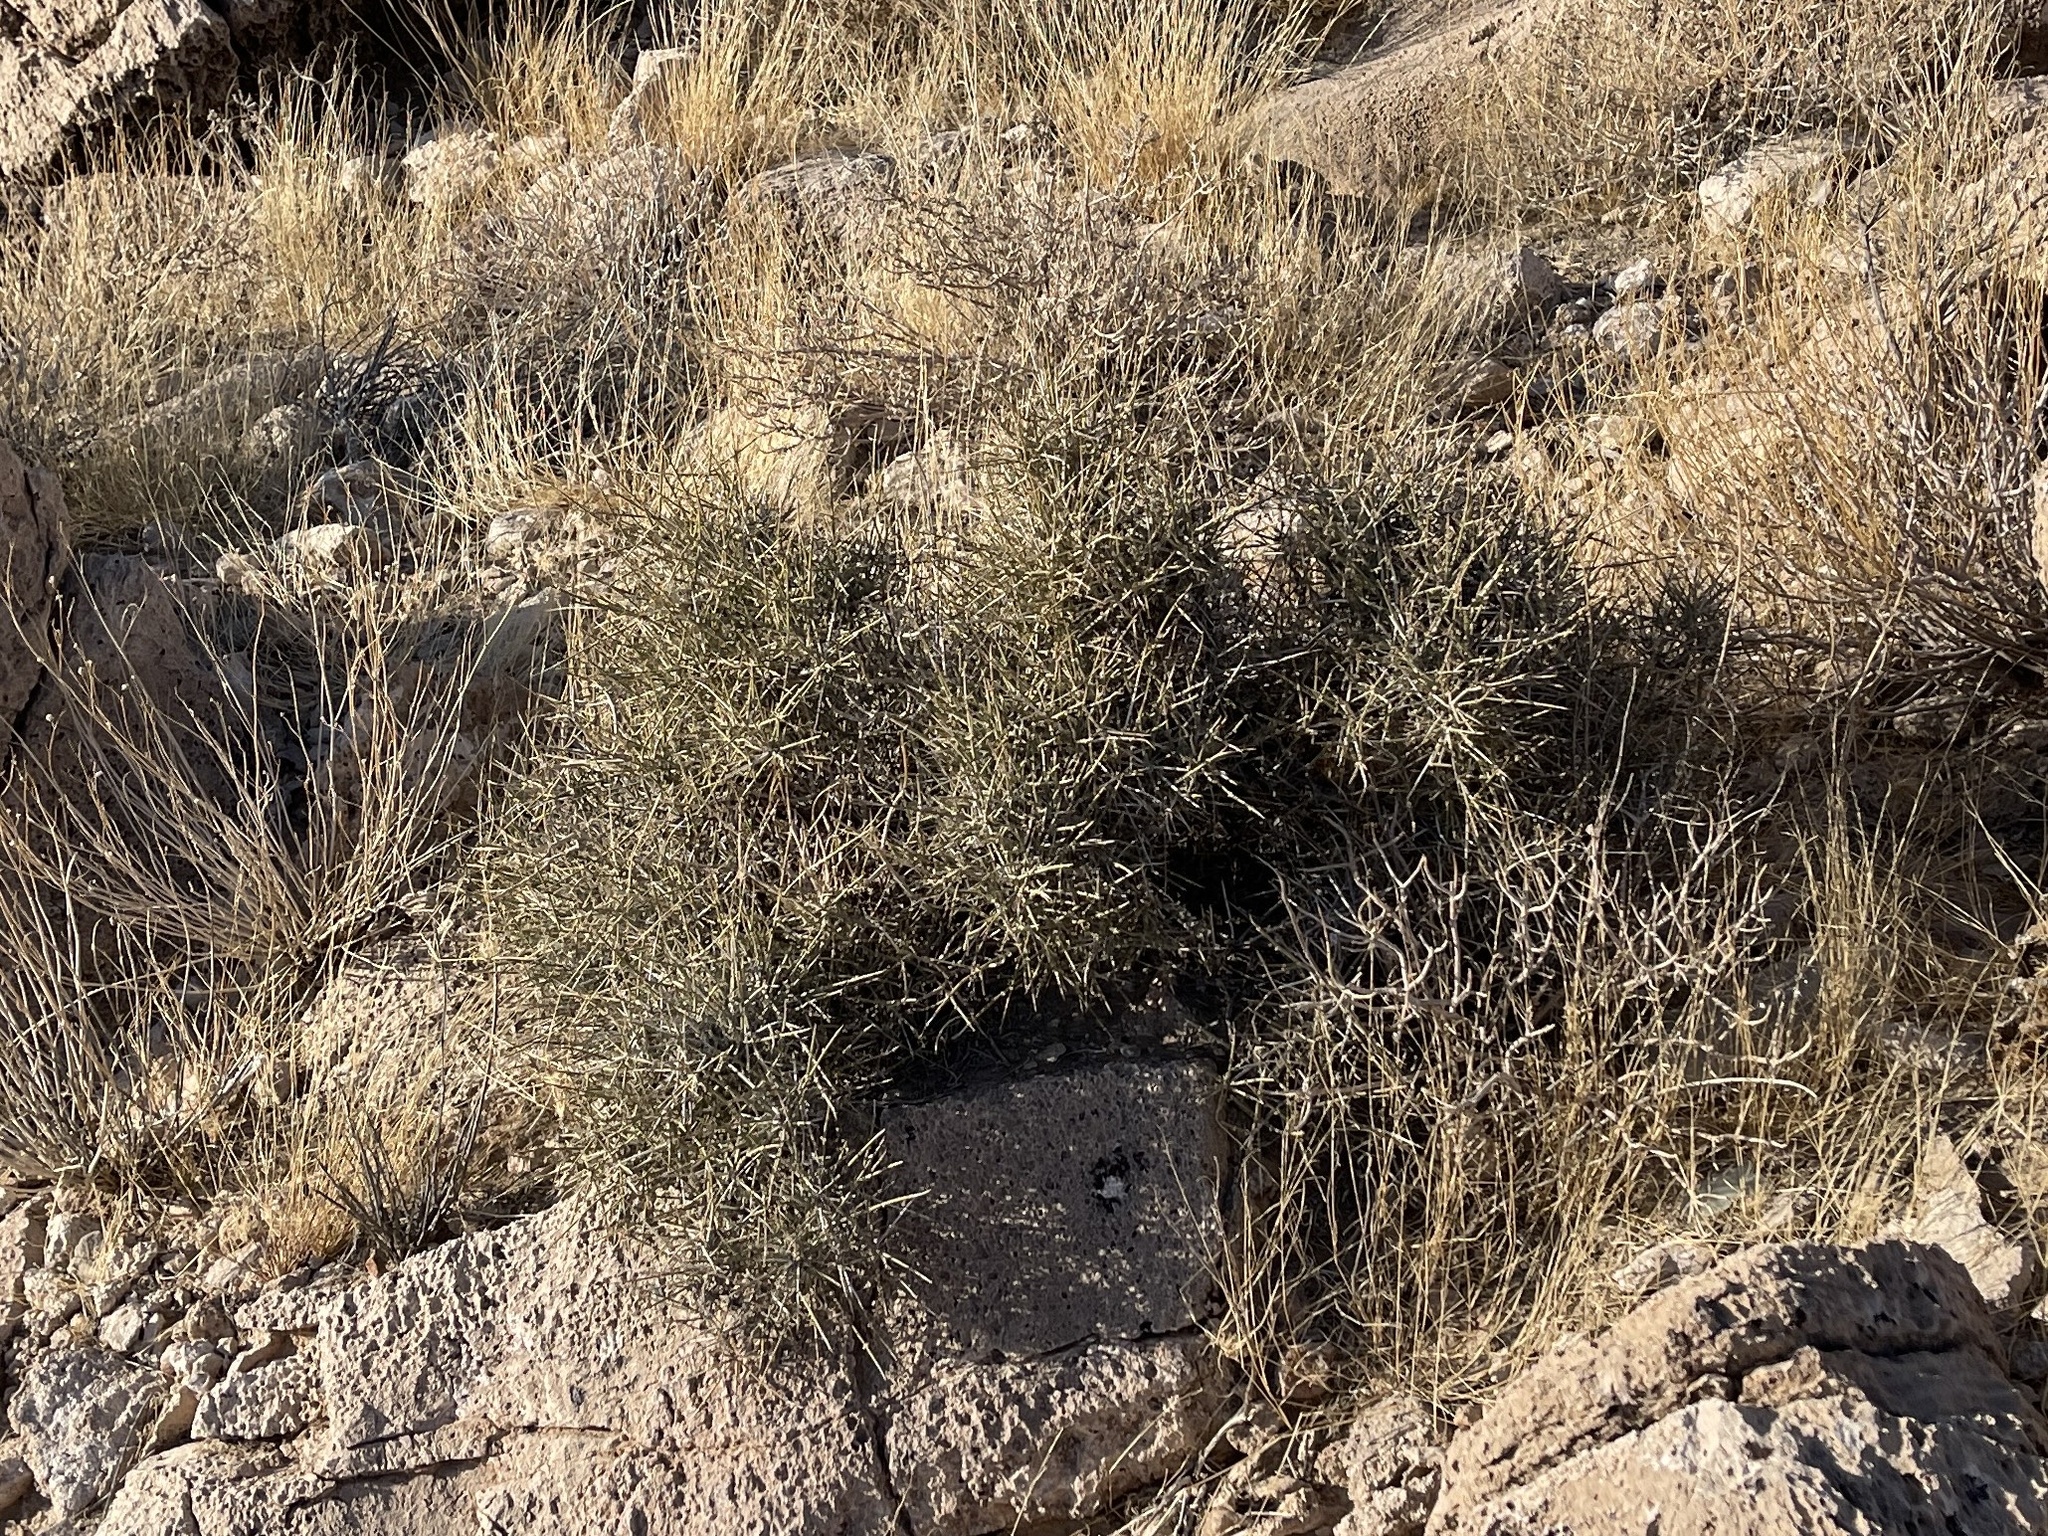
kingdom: Plantae
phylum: Tracheophyta
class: Gnetopsida
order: Ephedrales
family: Ephedraceae
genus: Ephedra
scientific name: Ephedra nevadensis
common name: Gray ephedra
